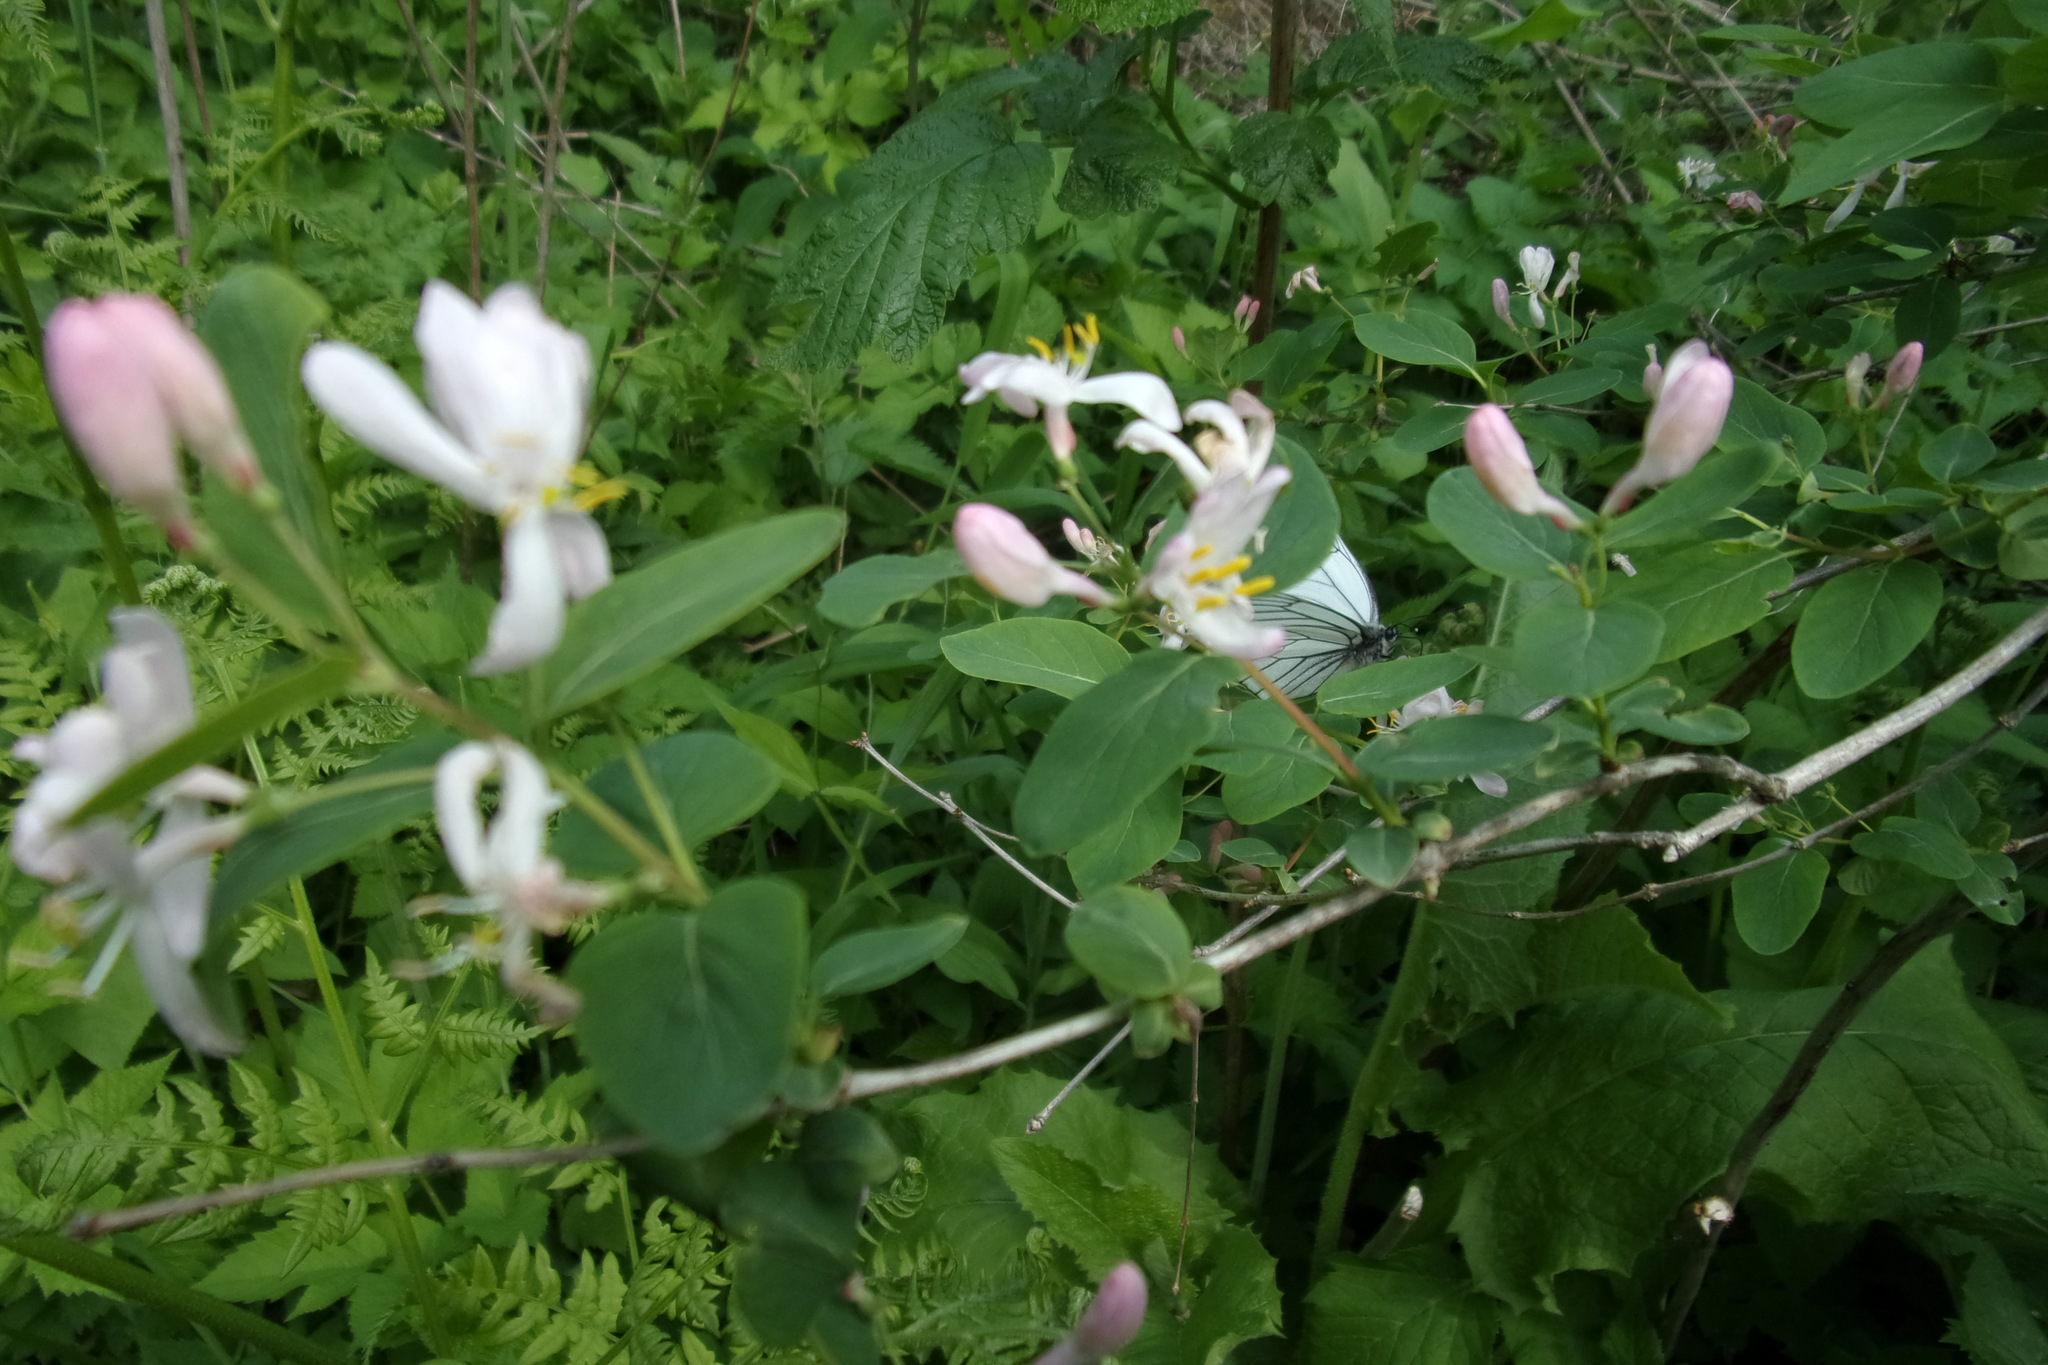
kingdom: Plantae
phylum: Tracheophyta
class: Magnoliopsida
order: Dipsacales
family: Caprifoliaceae
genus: Lonicera
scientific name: Lonicera tatarica
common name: Tatarian honeysuckle
